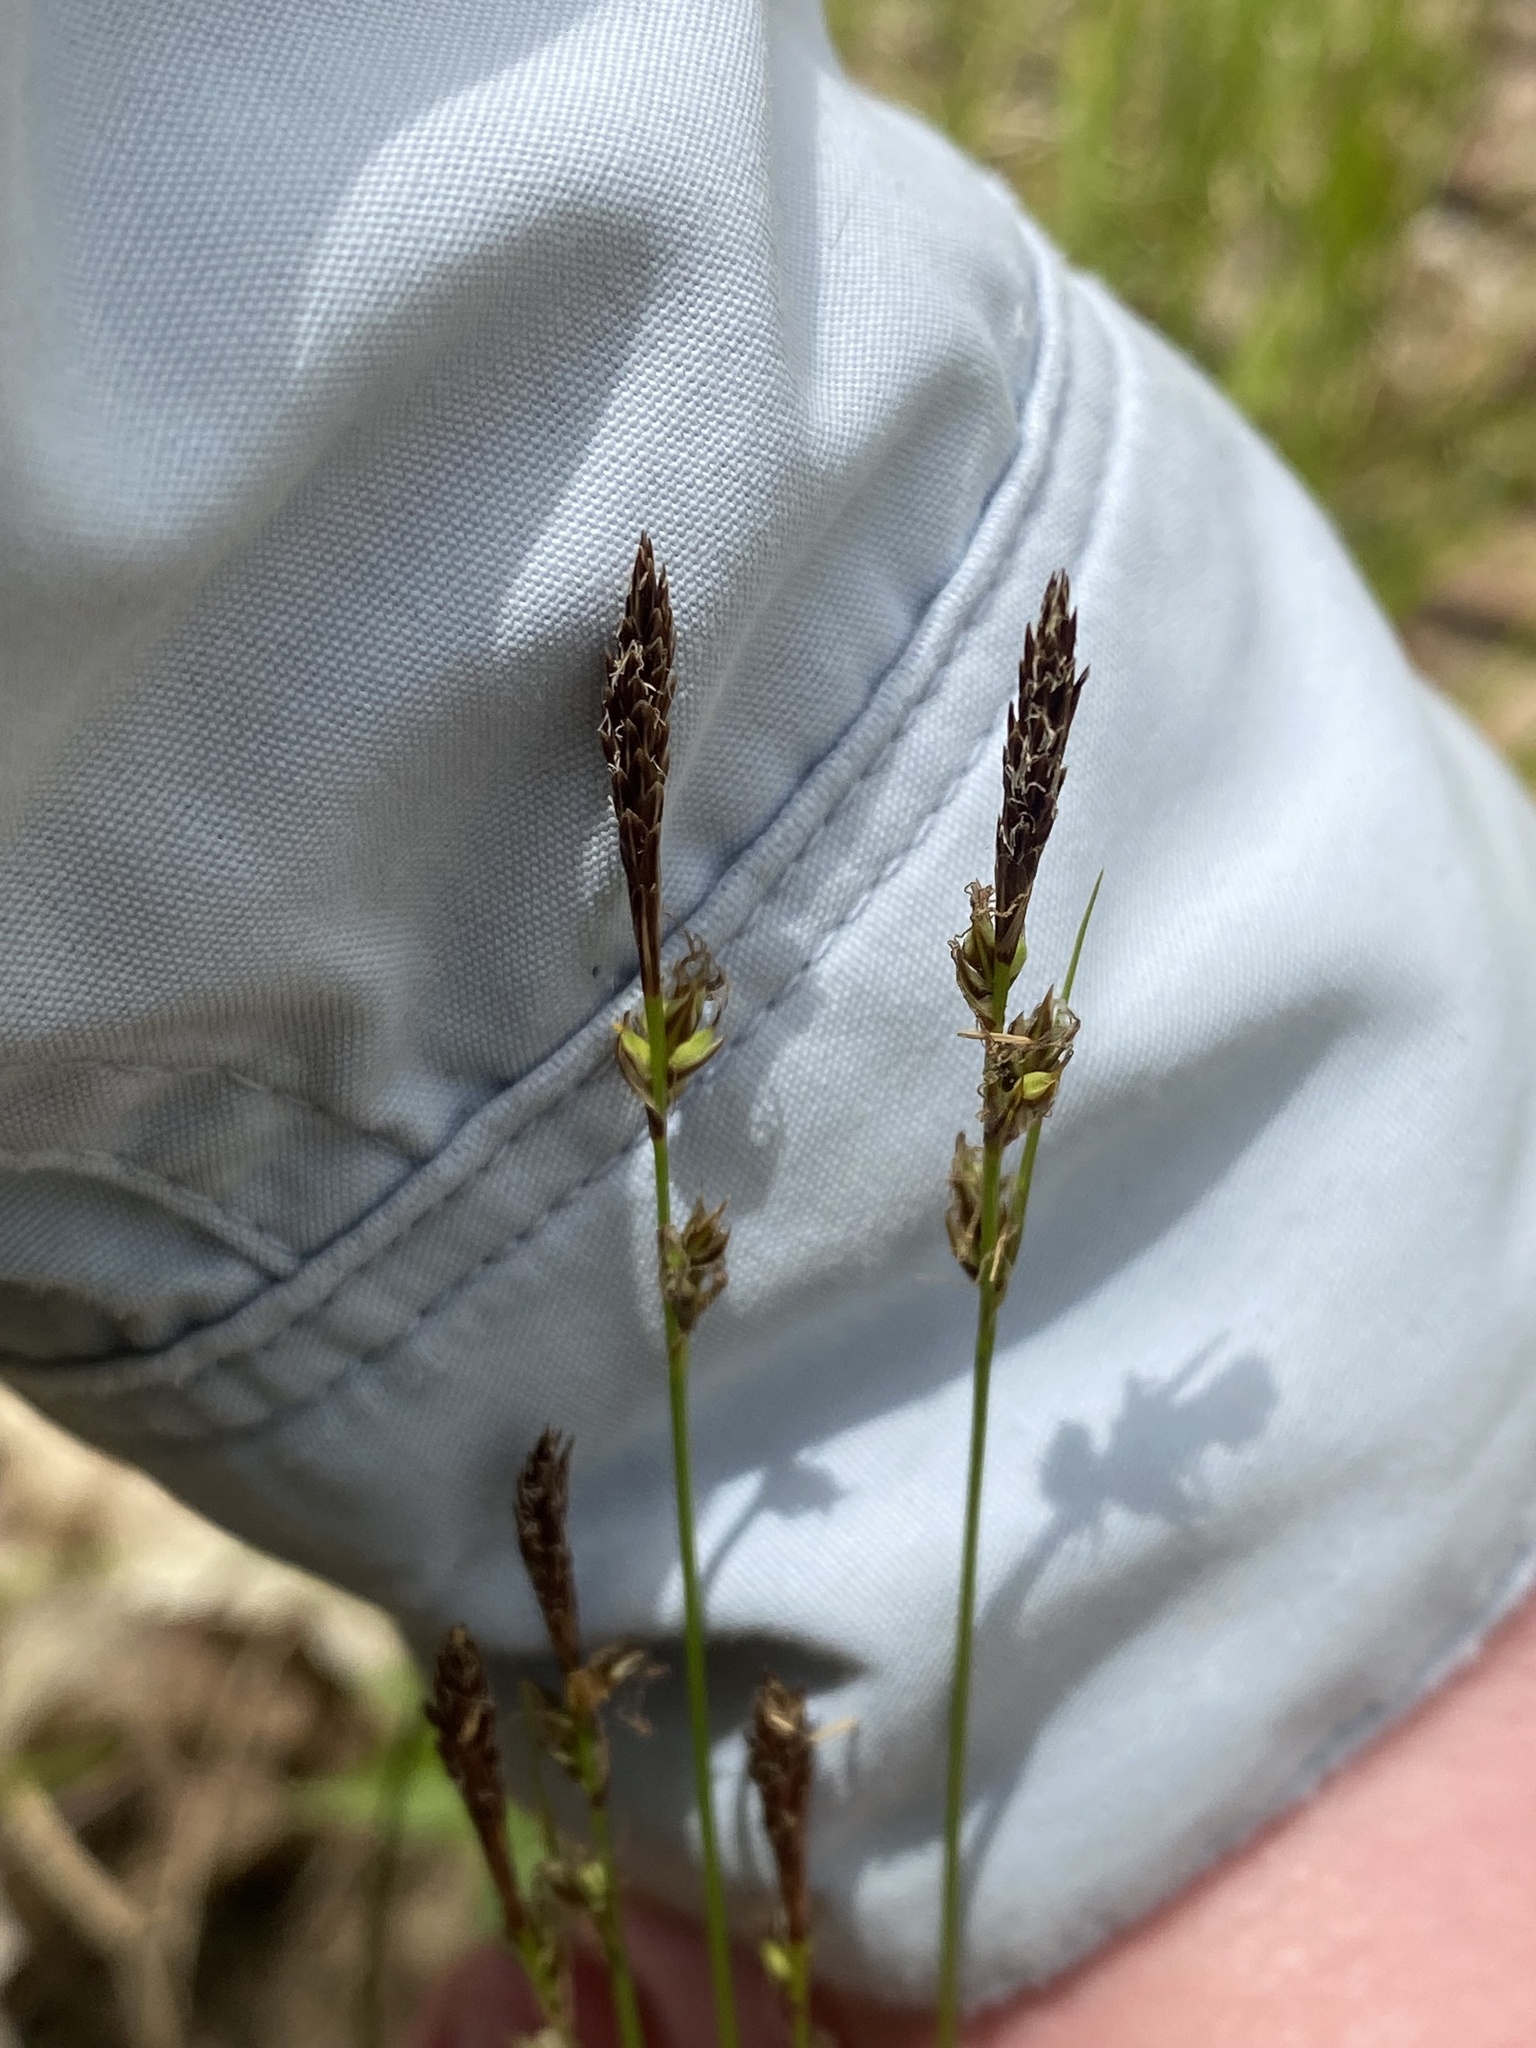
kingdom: Plantae
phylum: Tracheophyta
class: Liliopsida
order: Poales
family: Cyperaceae
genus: Carex
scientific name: Carex pensylvanica
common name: Common oak sedge
